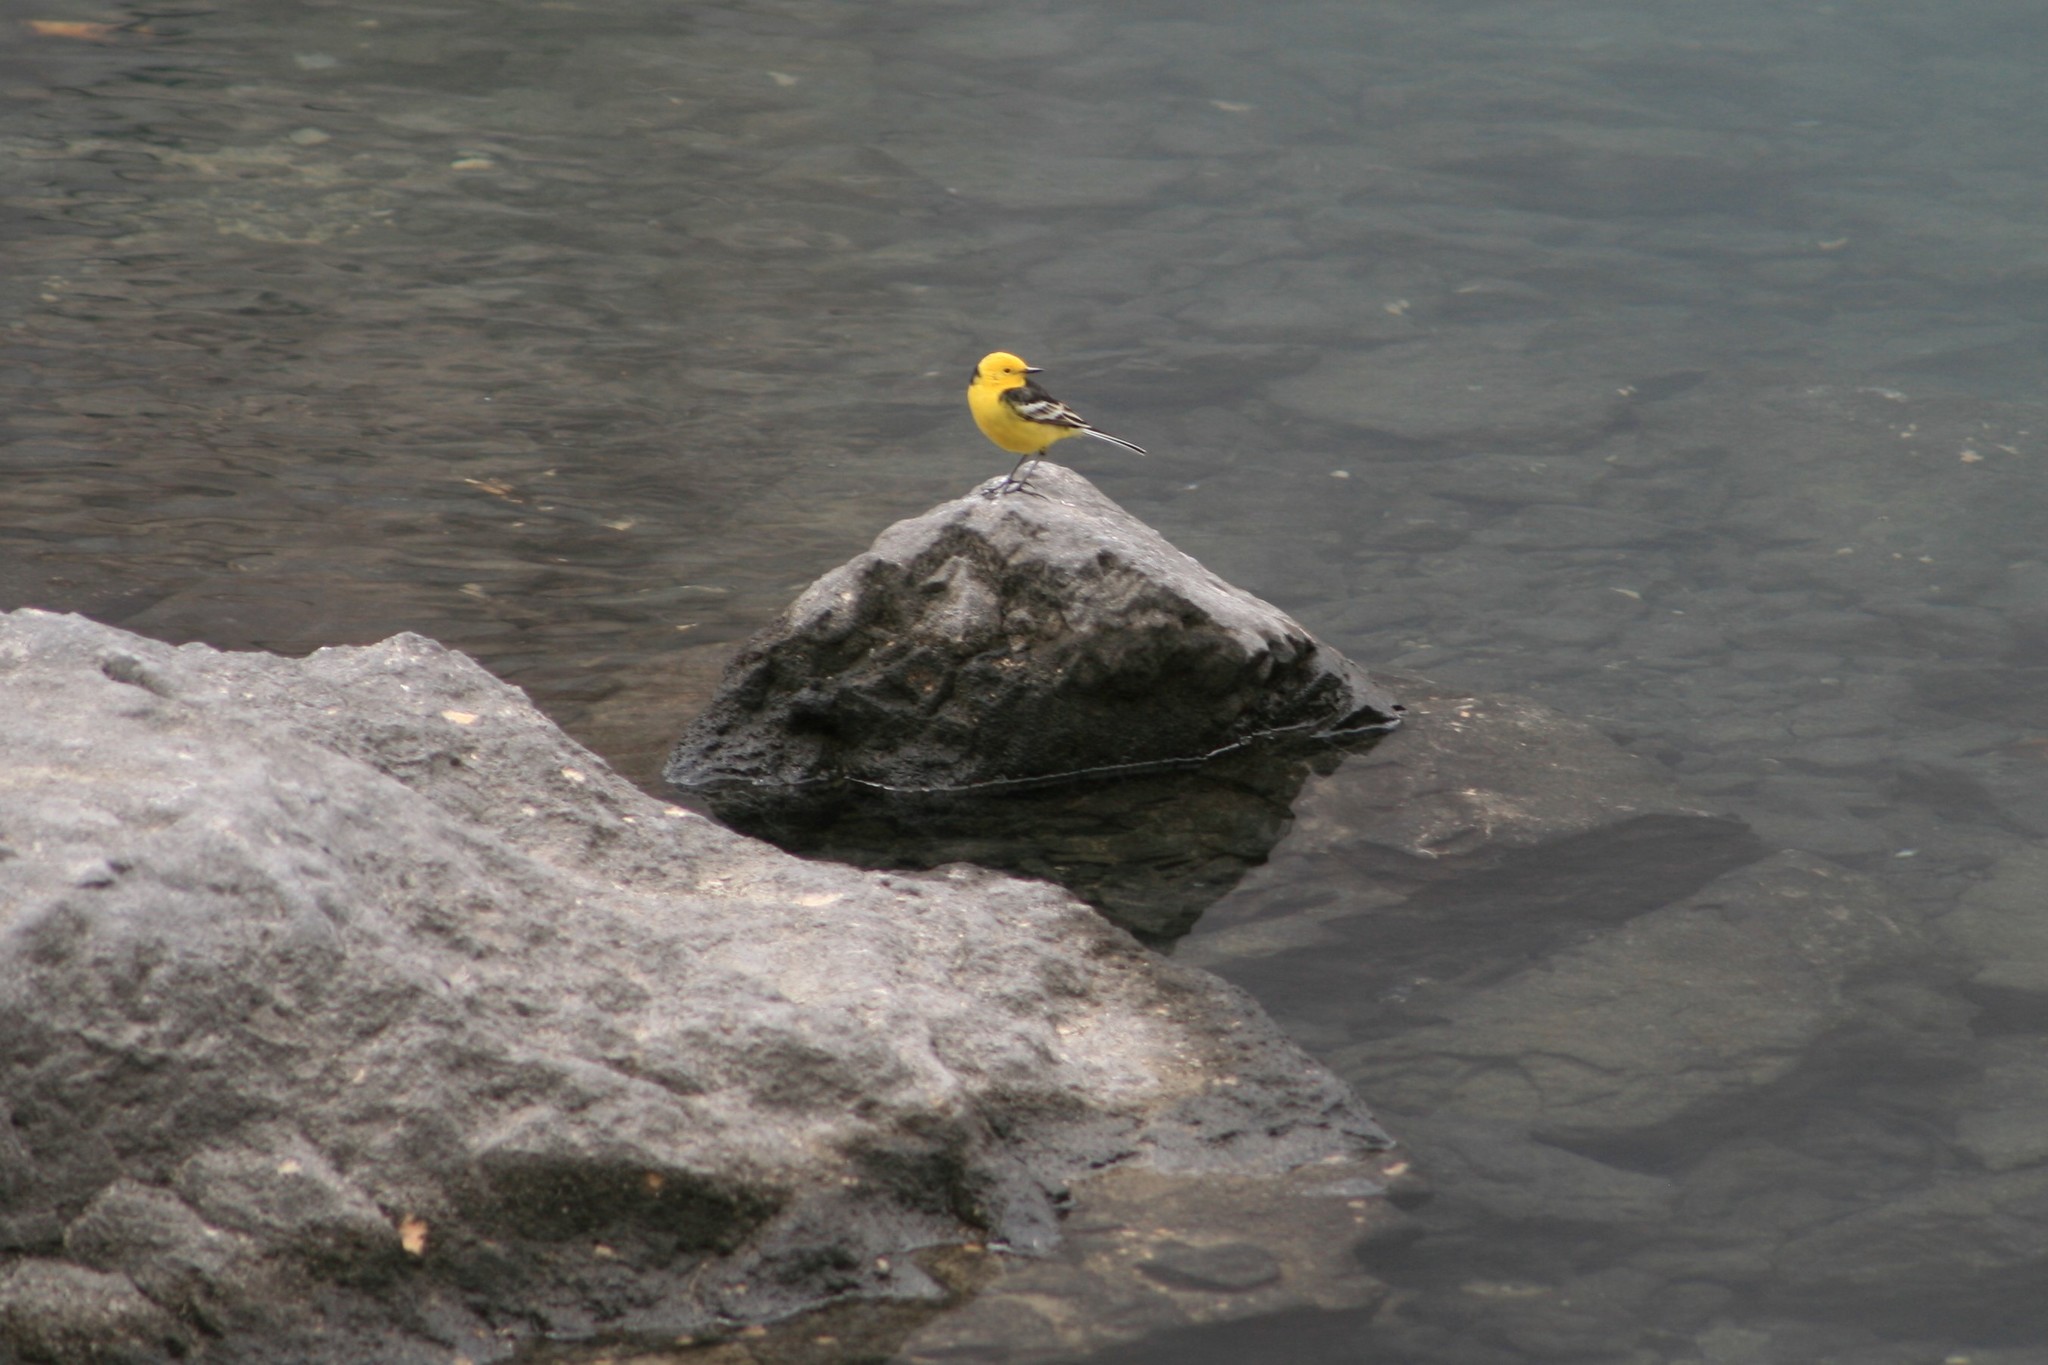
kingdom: Animalia
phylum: Chordata
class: Aves
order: Passeriformes
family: Motacillidae
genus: Motacilla
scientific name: Motacilla citreola
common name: Citrine wagtail
